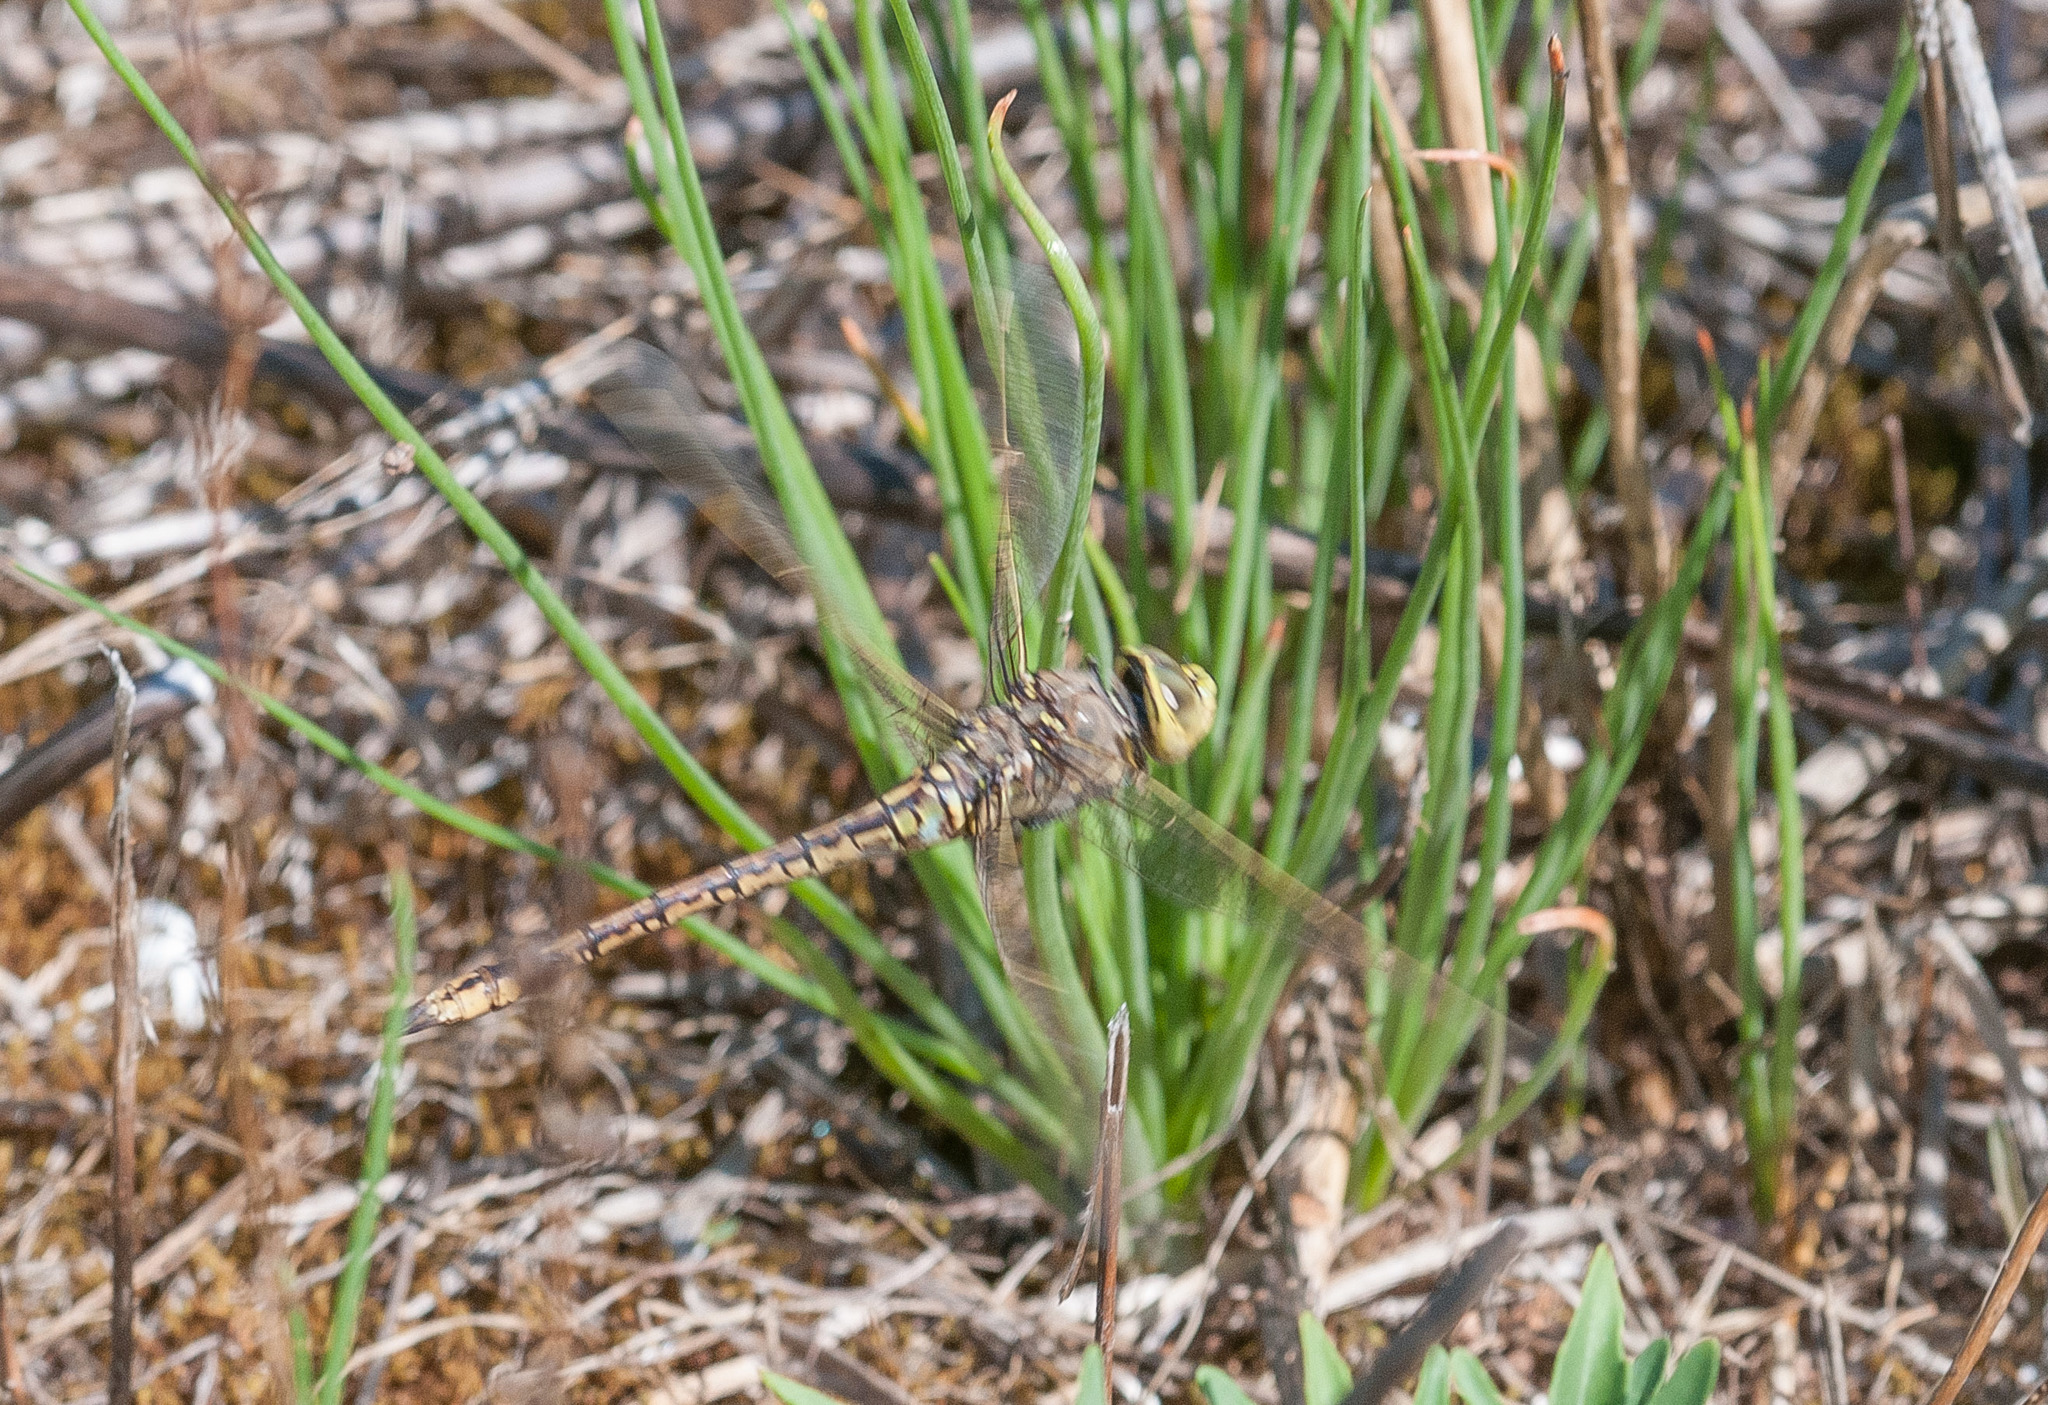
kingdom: Animalia
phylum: Arthropoda
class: Insecta
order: Odonata
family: Aeshnidae
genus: Anax
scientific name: Anax papuensis
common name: Australian emperor
